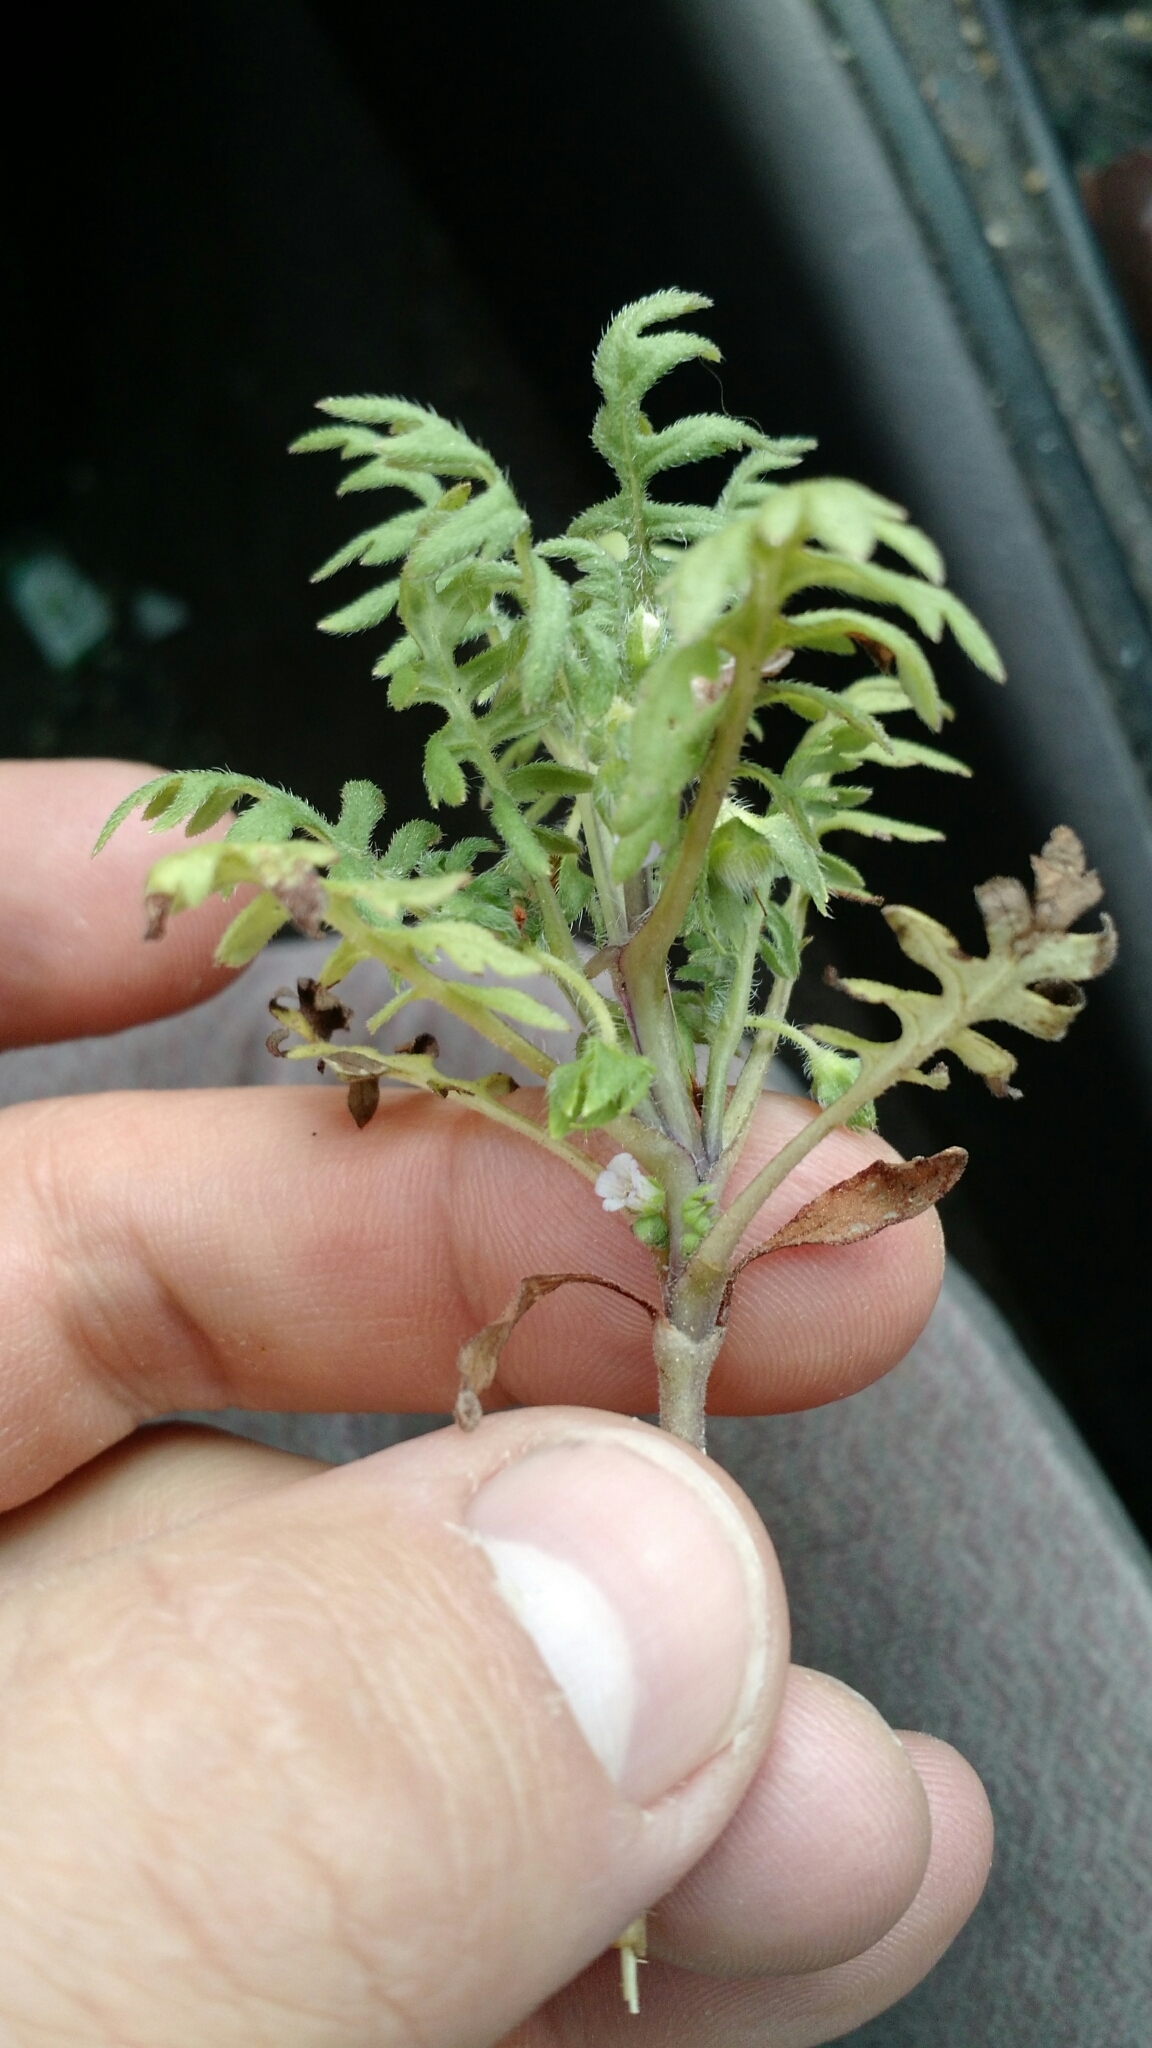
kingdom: Plantae
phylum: Tracheophyta
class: Magnoliopsida
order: Boraginales
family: Hydrophyllaceae
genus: Ellisia
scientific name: Ellisia nyctelea
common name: Aunt lucy
